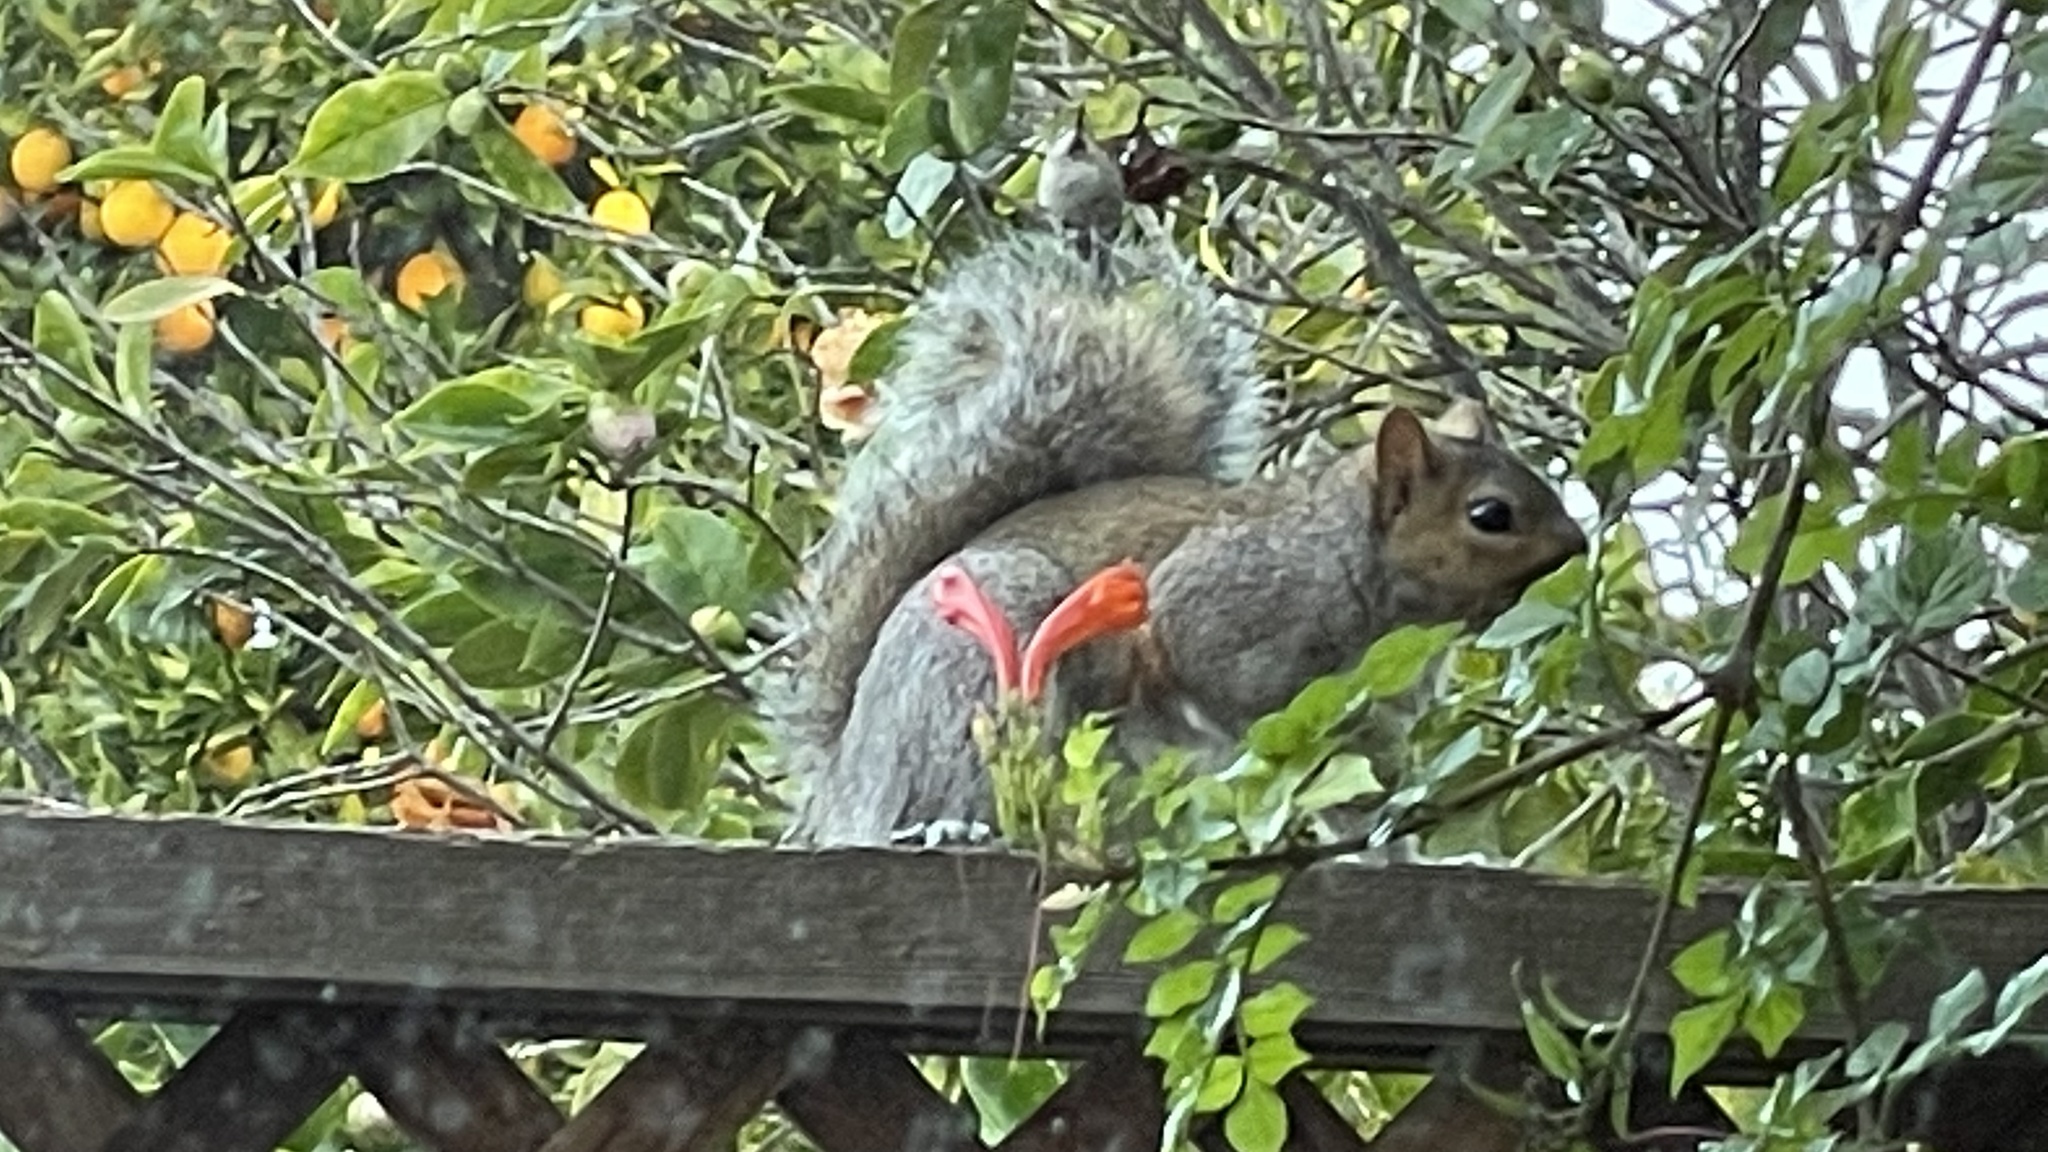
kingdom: Animalia
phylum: Chordata
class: Mammalia
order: Rodentia
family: Sciuridae
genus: Sciurus
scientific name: Sciurus carolinensis
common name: Eastern gray squirrel
